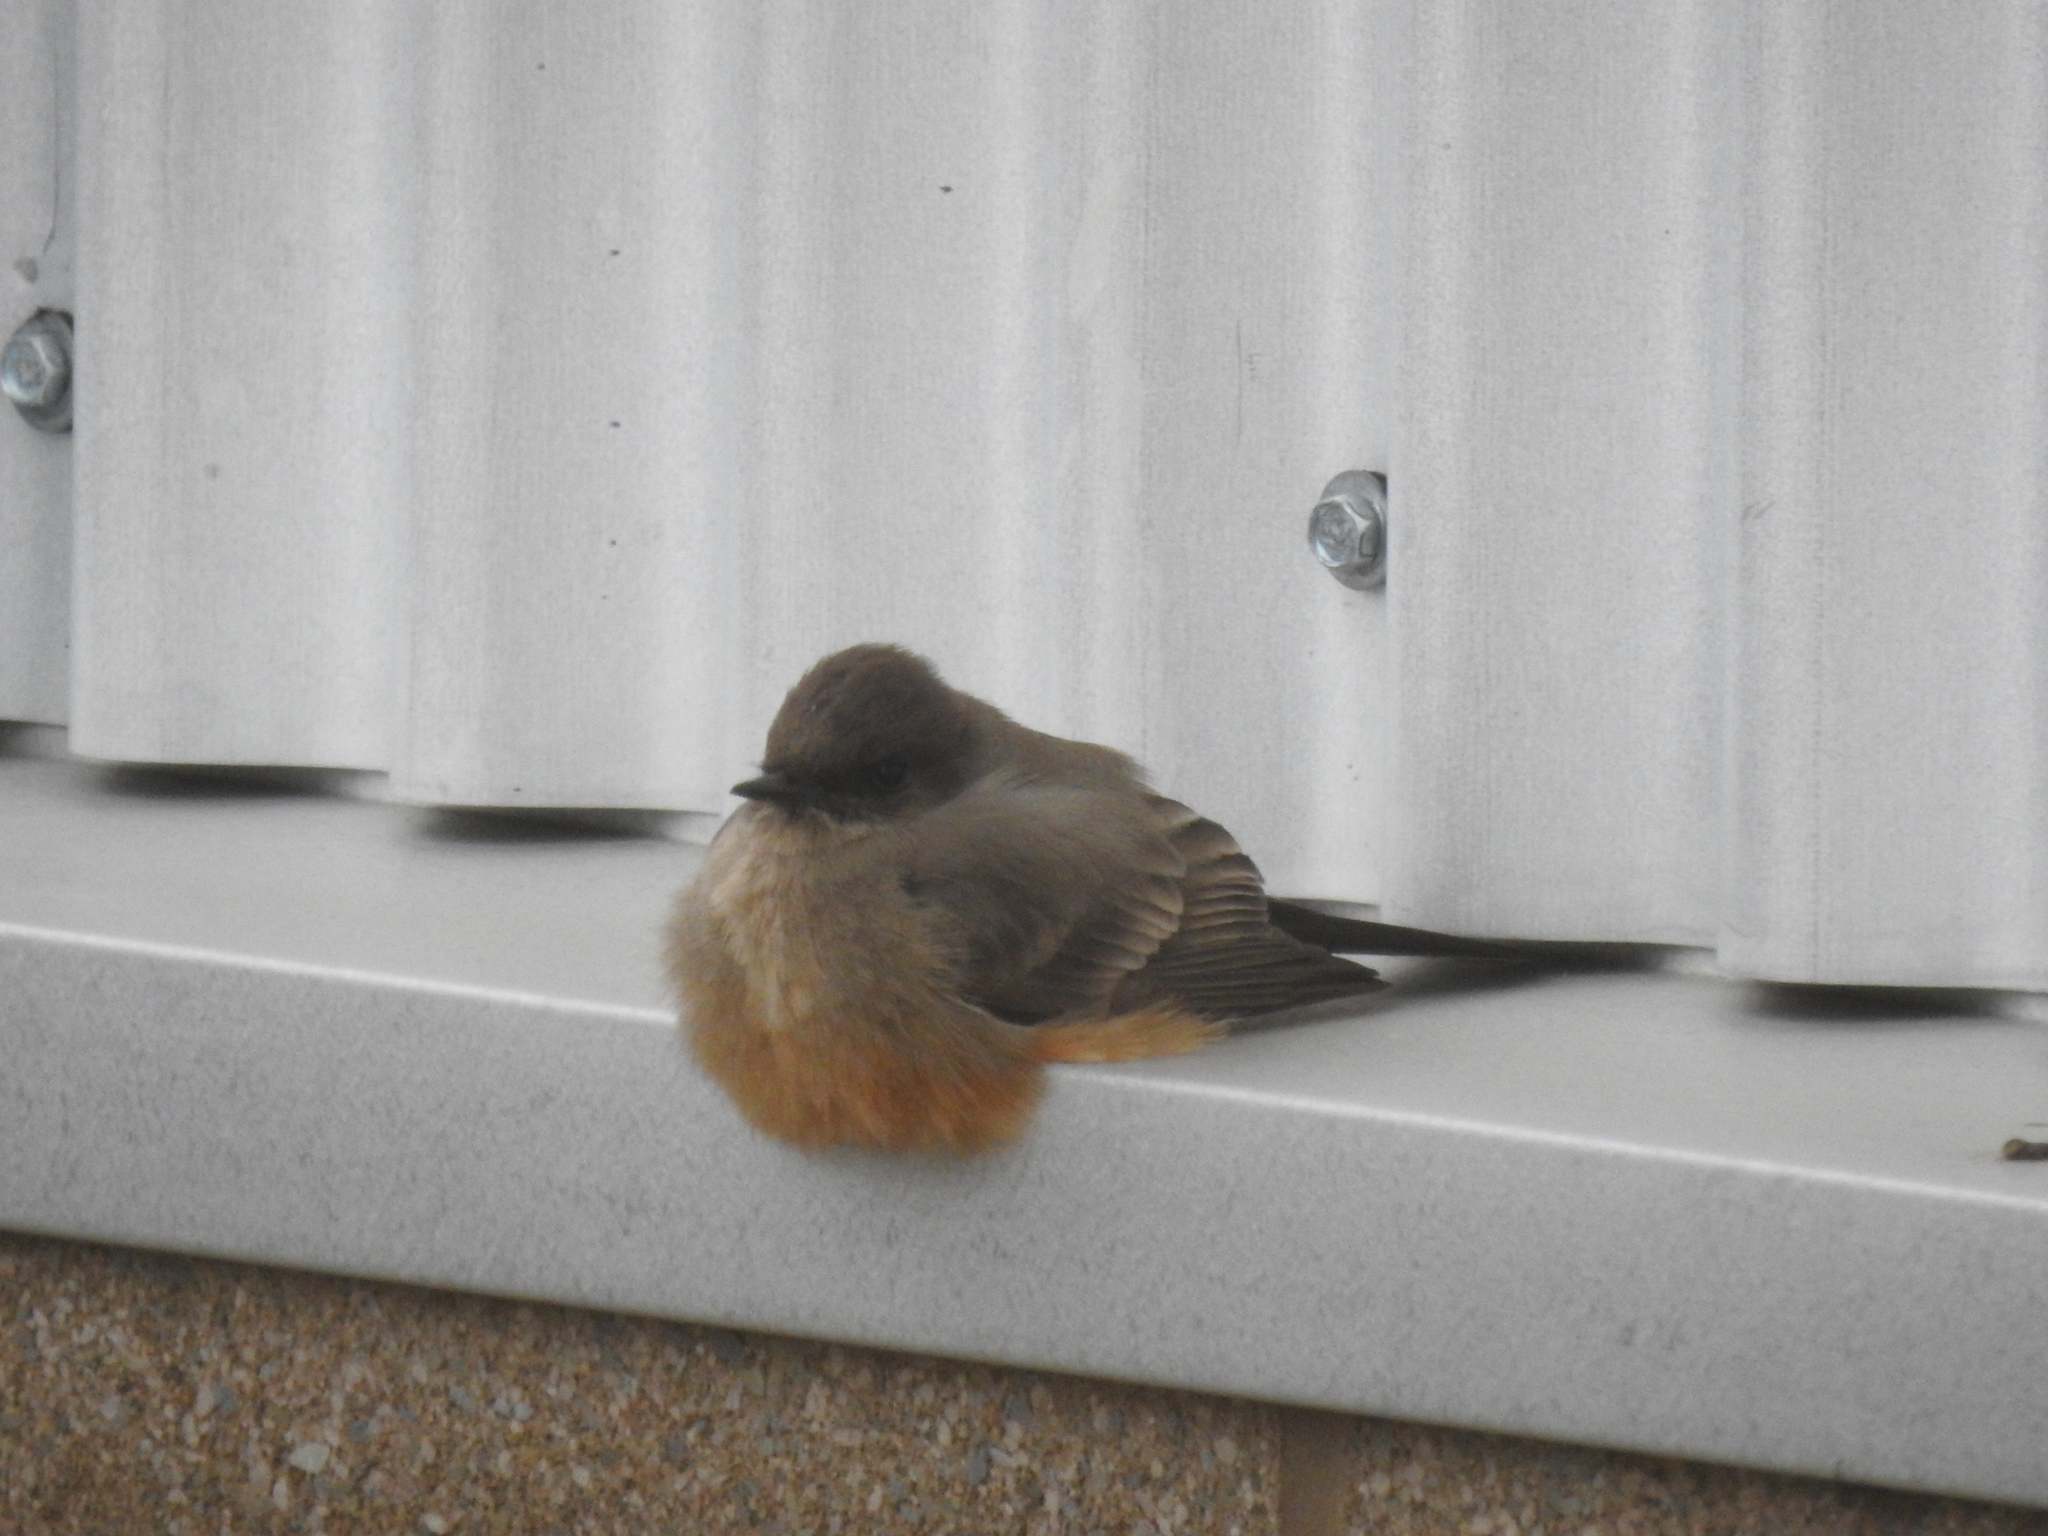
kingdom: Animalia
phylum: Chordata
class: Aves
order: Passeriformes
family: Tyrannidae
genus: Sayornis
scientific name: Sayornis saya
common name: Say's phoebe
